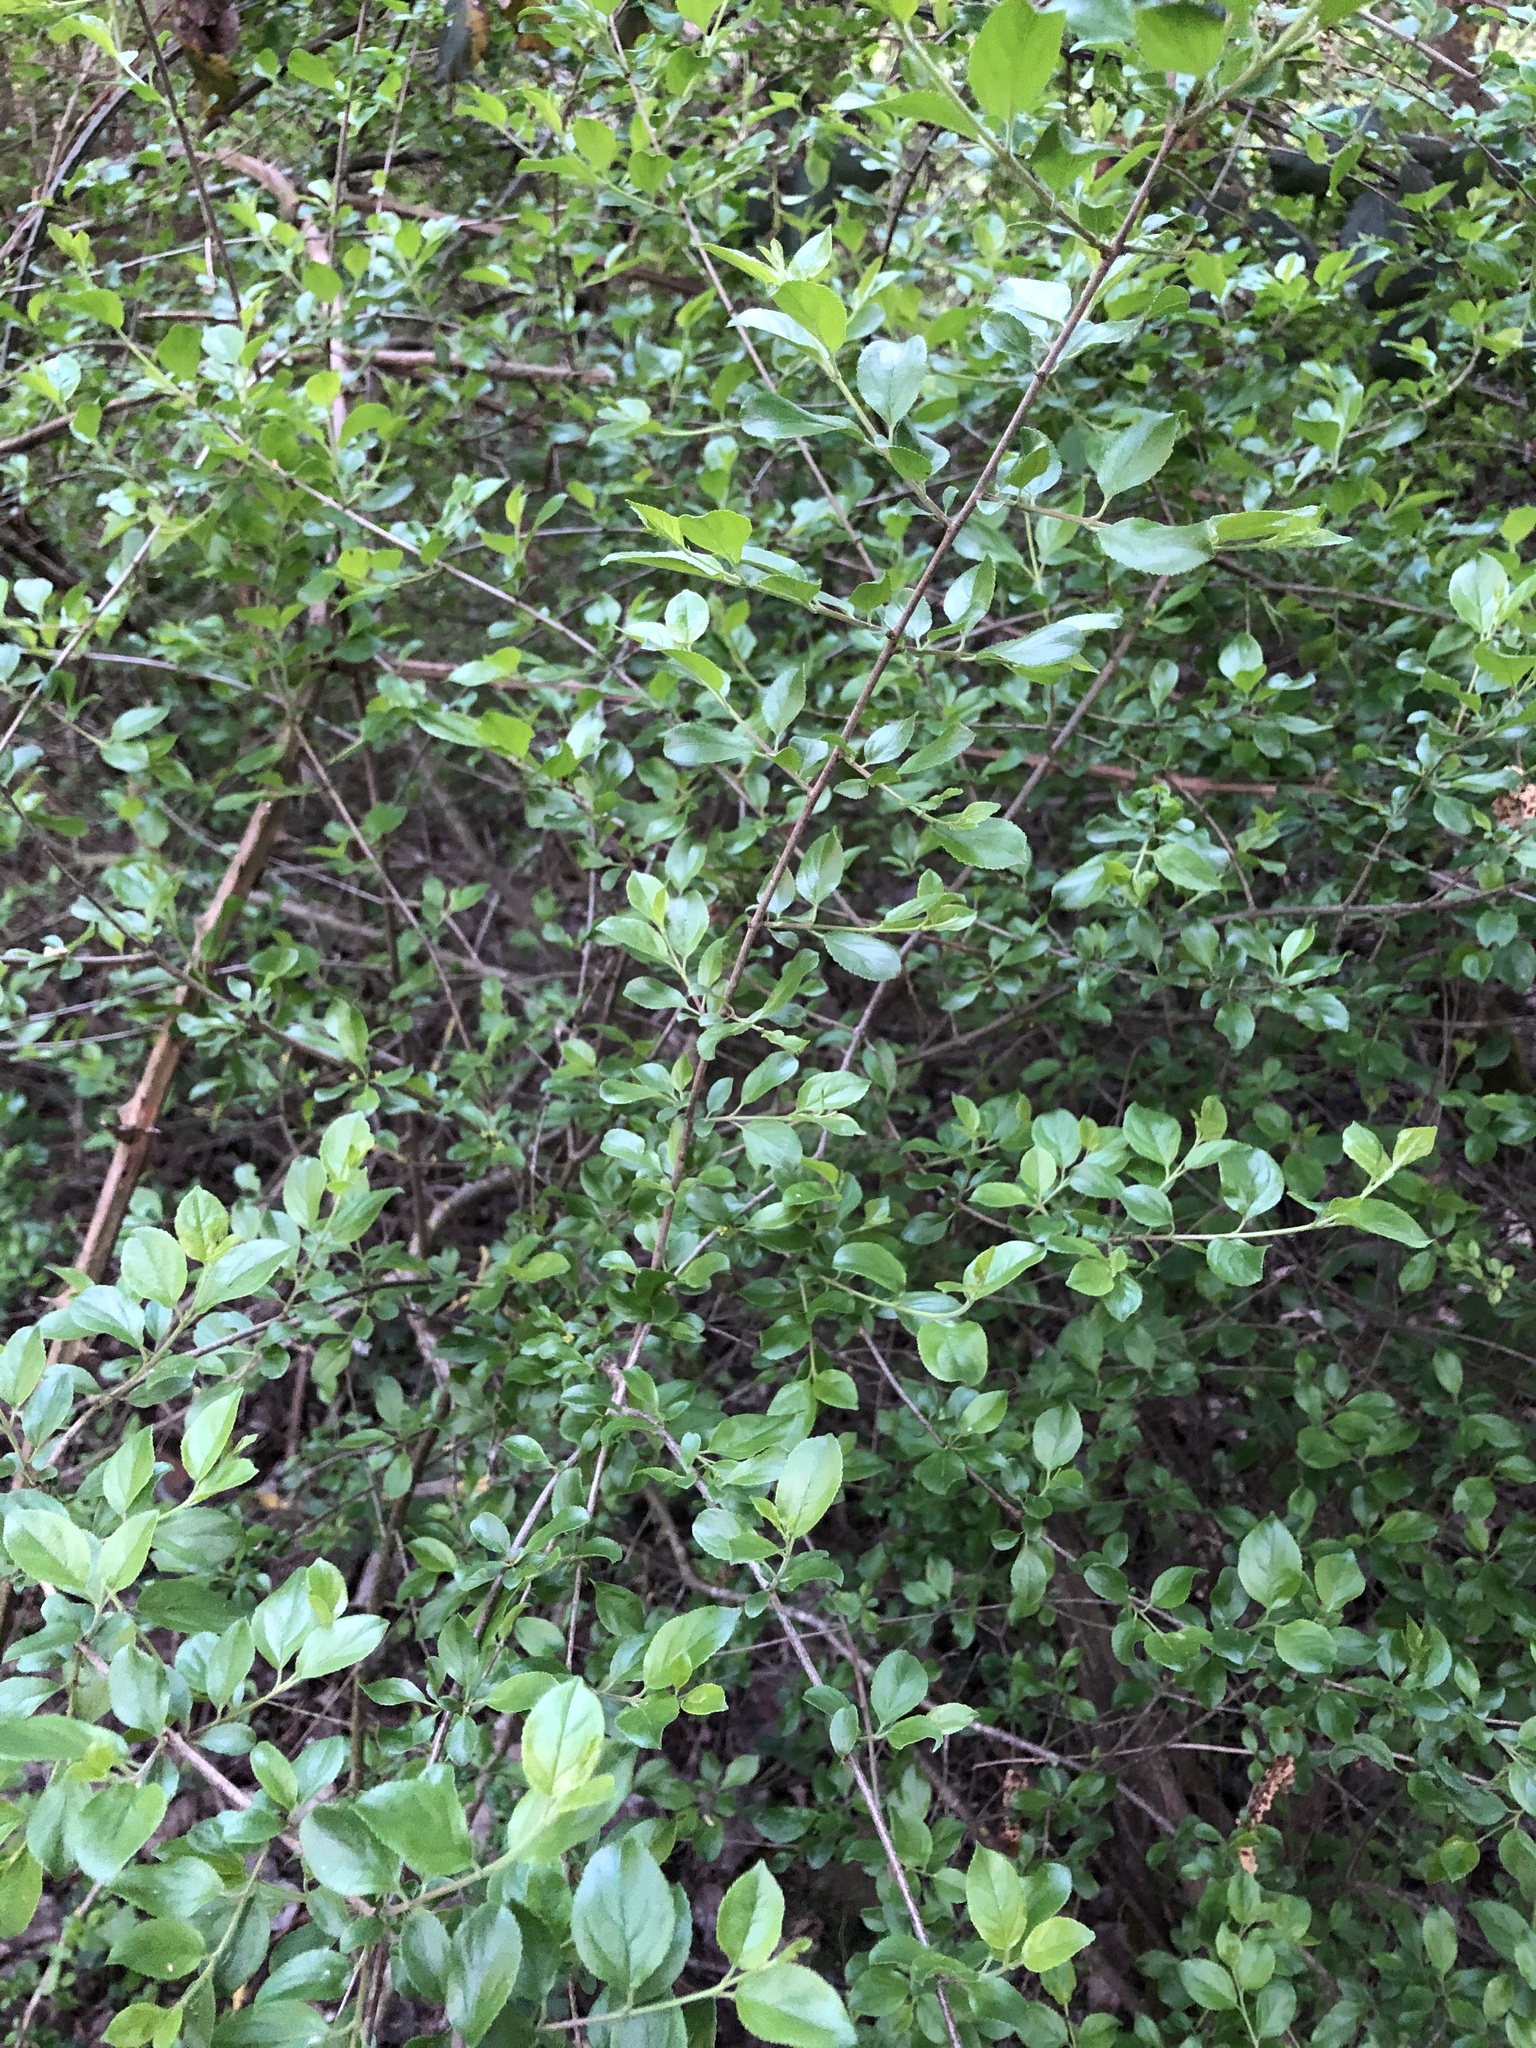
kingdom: Plantae
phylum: Tracheophyta
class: Magnoliopsida
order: Rosales
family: Rhamnaceae
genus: Rhamnus
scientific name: Rhamnus saxatilis
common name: Rock buckthorn
